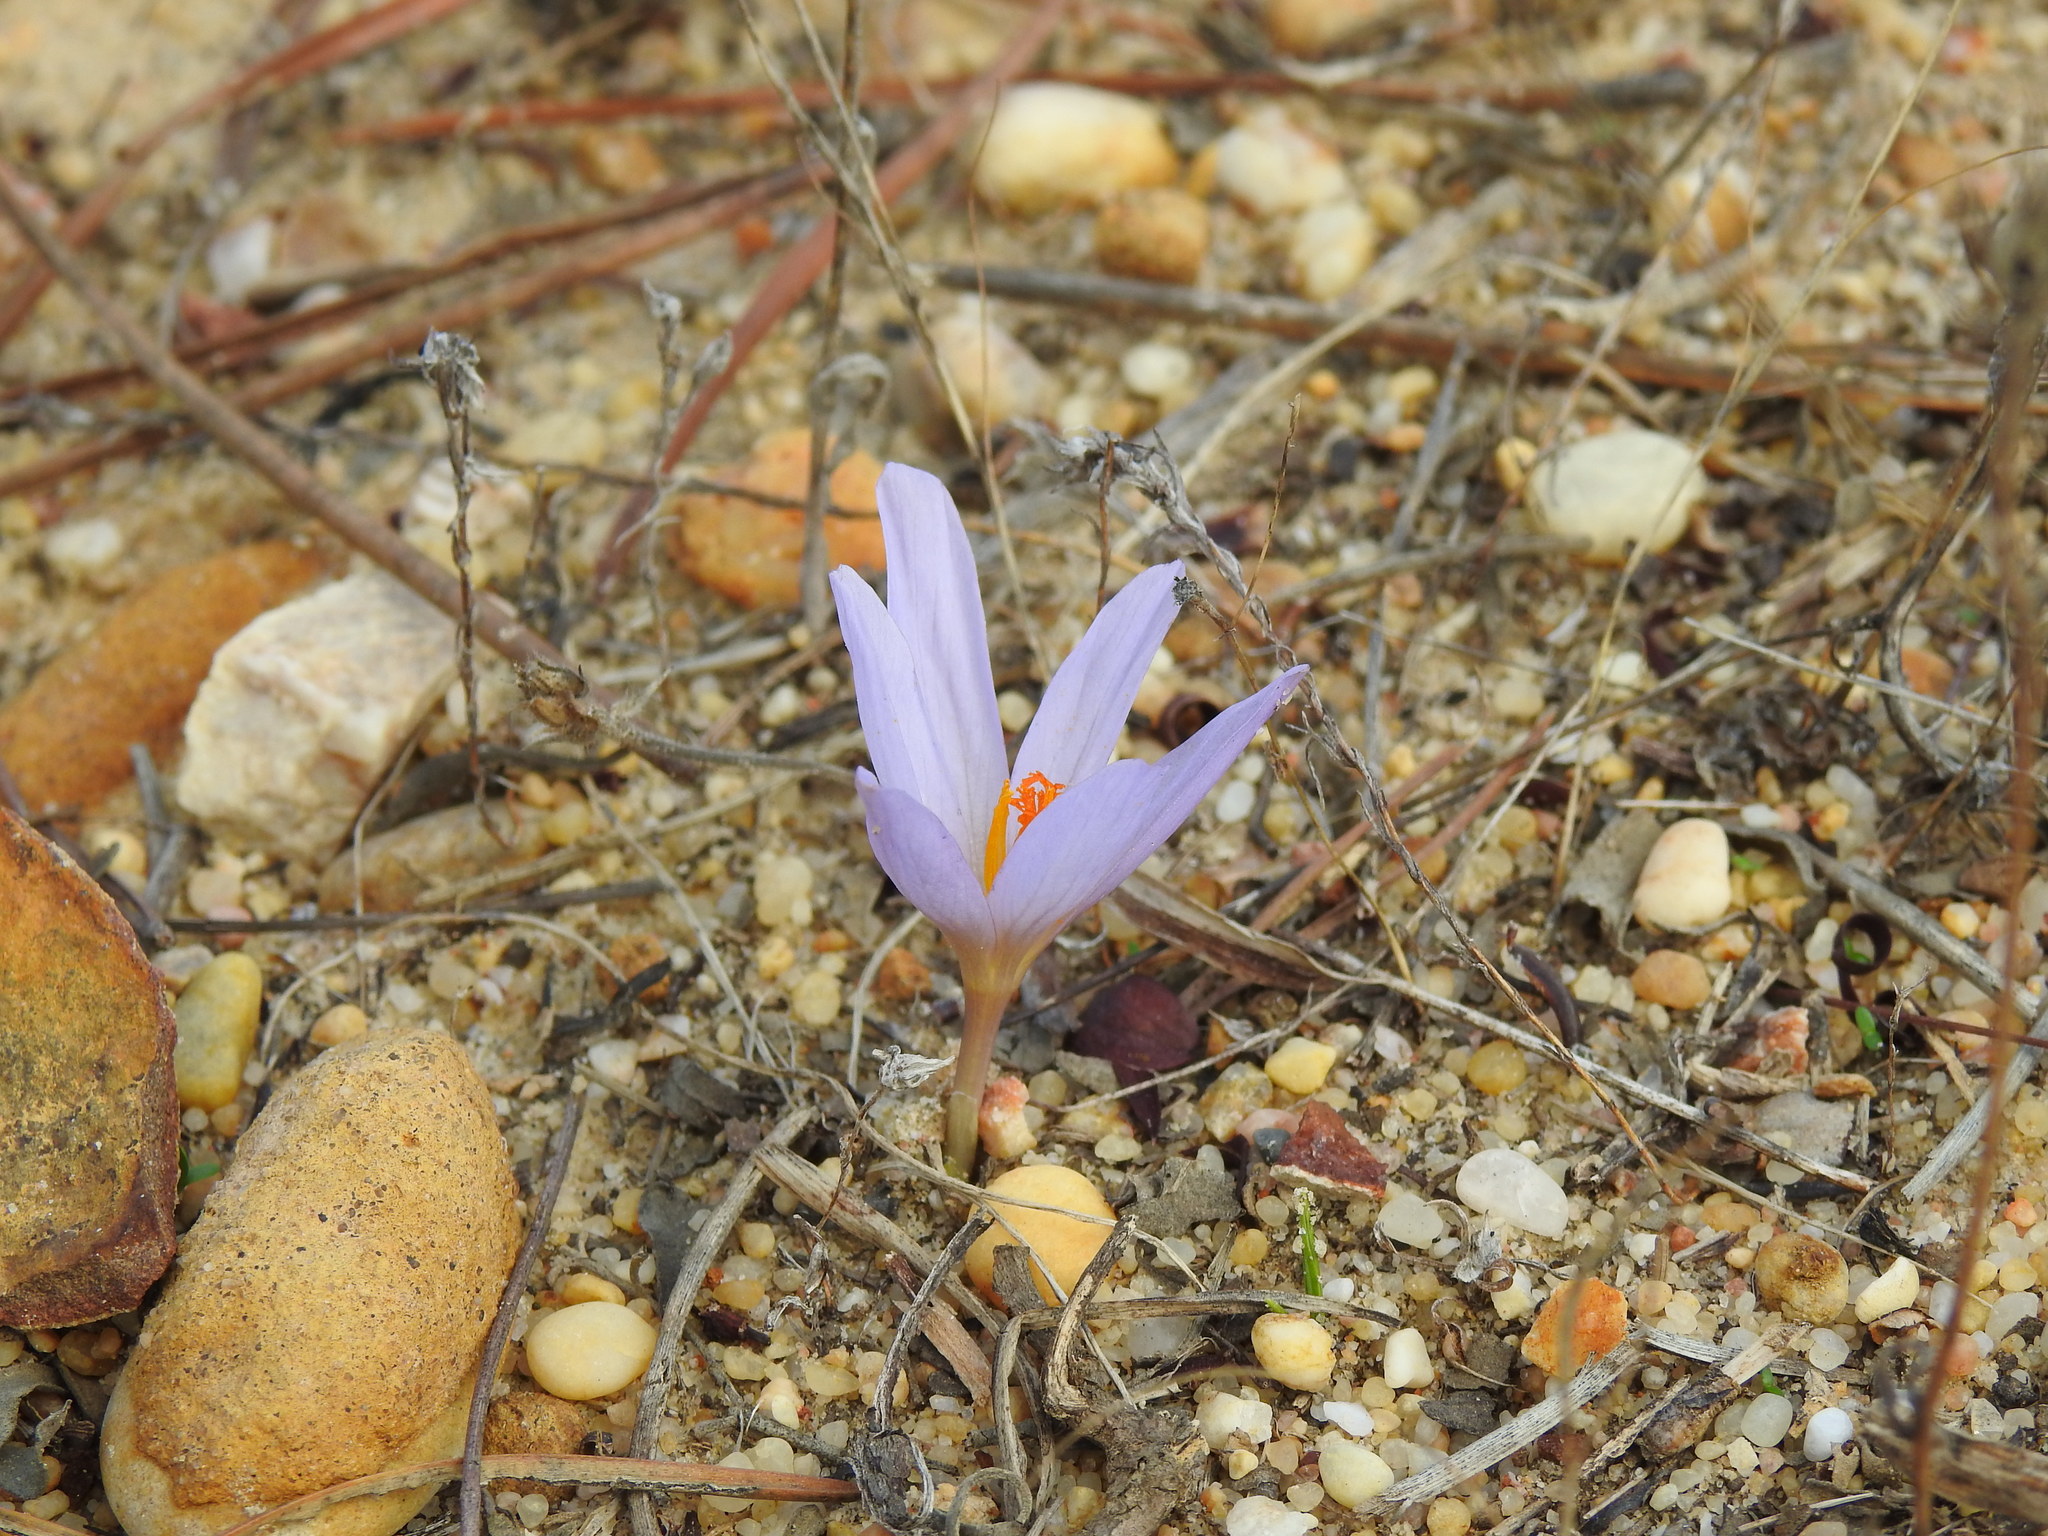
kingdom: Plantae
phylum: Tracheophyta
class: Liliopsida
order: Asparagales
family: Iridaceae
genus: Crocus
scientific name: Crocus serotinus
